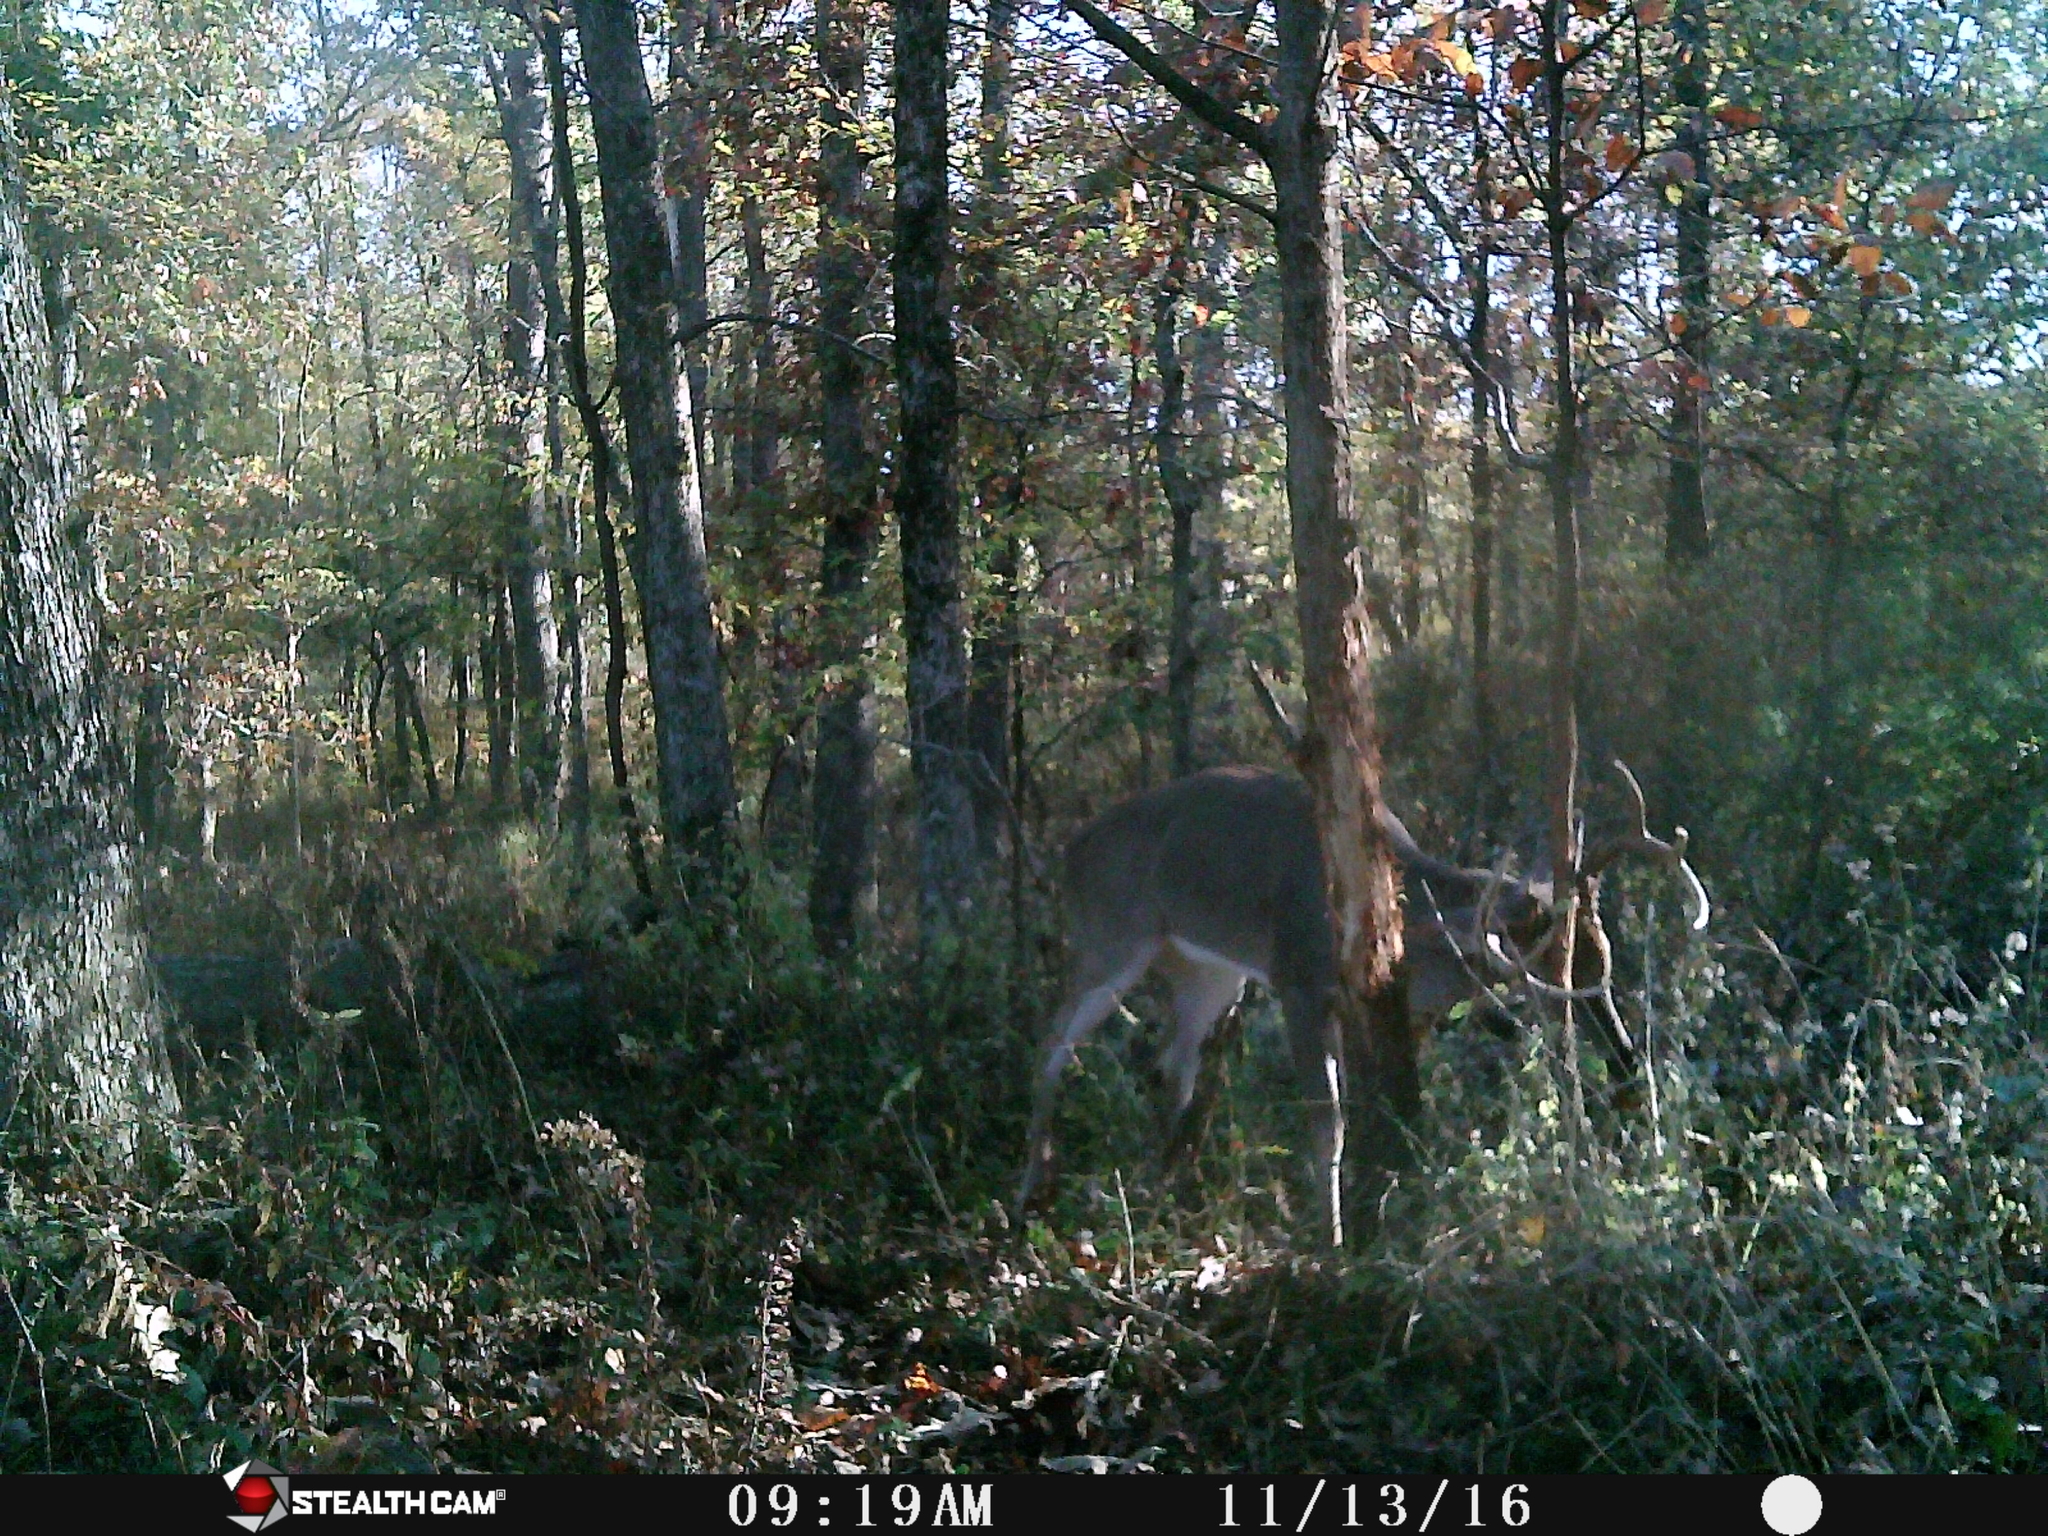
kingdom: Animalia
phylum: Chordata
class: Mammalia
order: Artiodactyla
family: Cervidae
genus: Odocoileus
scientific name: Odocoileus virginianus
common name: White-tailed deer
